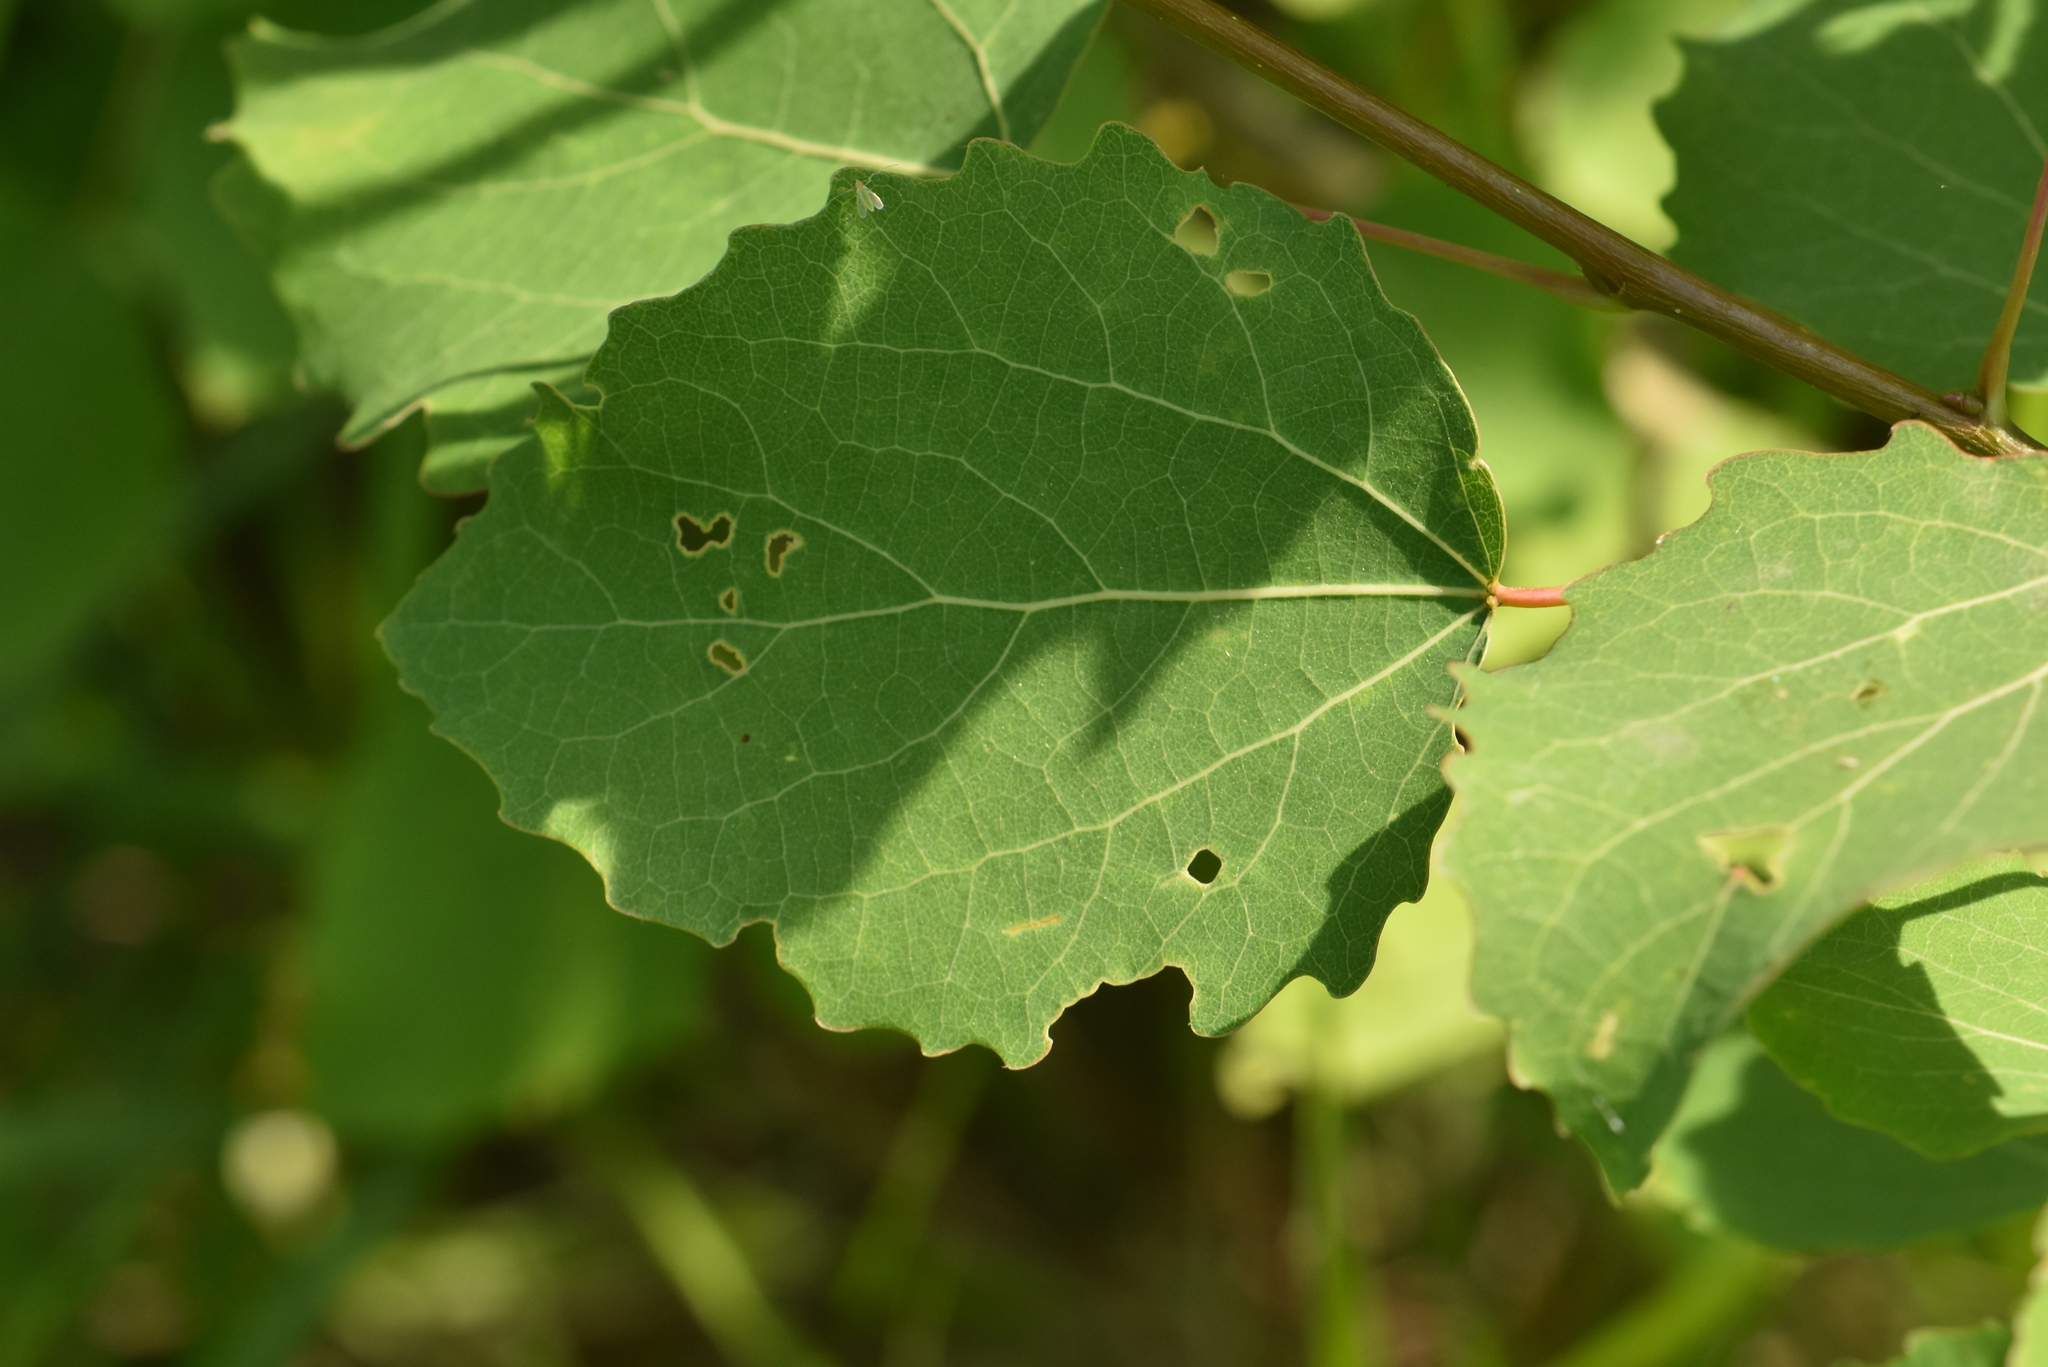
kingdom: Plantae
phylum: Tracheophyta
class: Magnoliopsida
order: Malpighiales
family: Salicaceae
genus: Populus
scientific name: Populus tremula
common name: European aspen
